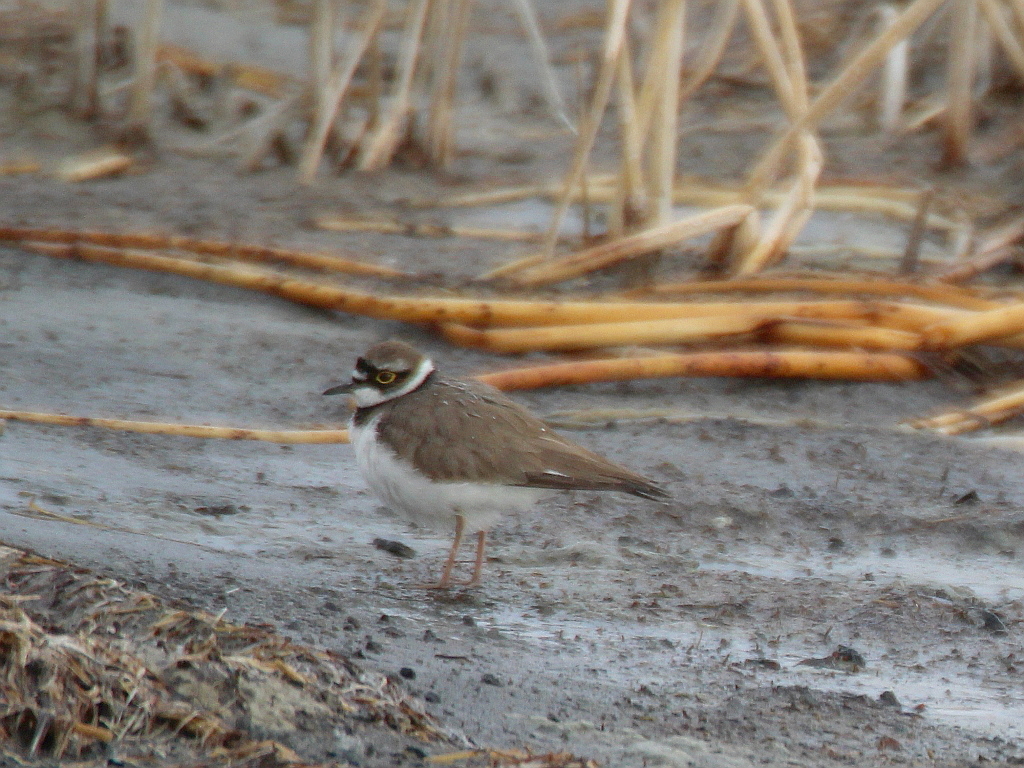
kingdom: Animalia
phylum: Chordata
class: Aves
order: Charadriiformes
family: Charadriidae
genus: Charadrius
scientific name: Charadrius dubius
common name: Little ringed plover
